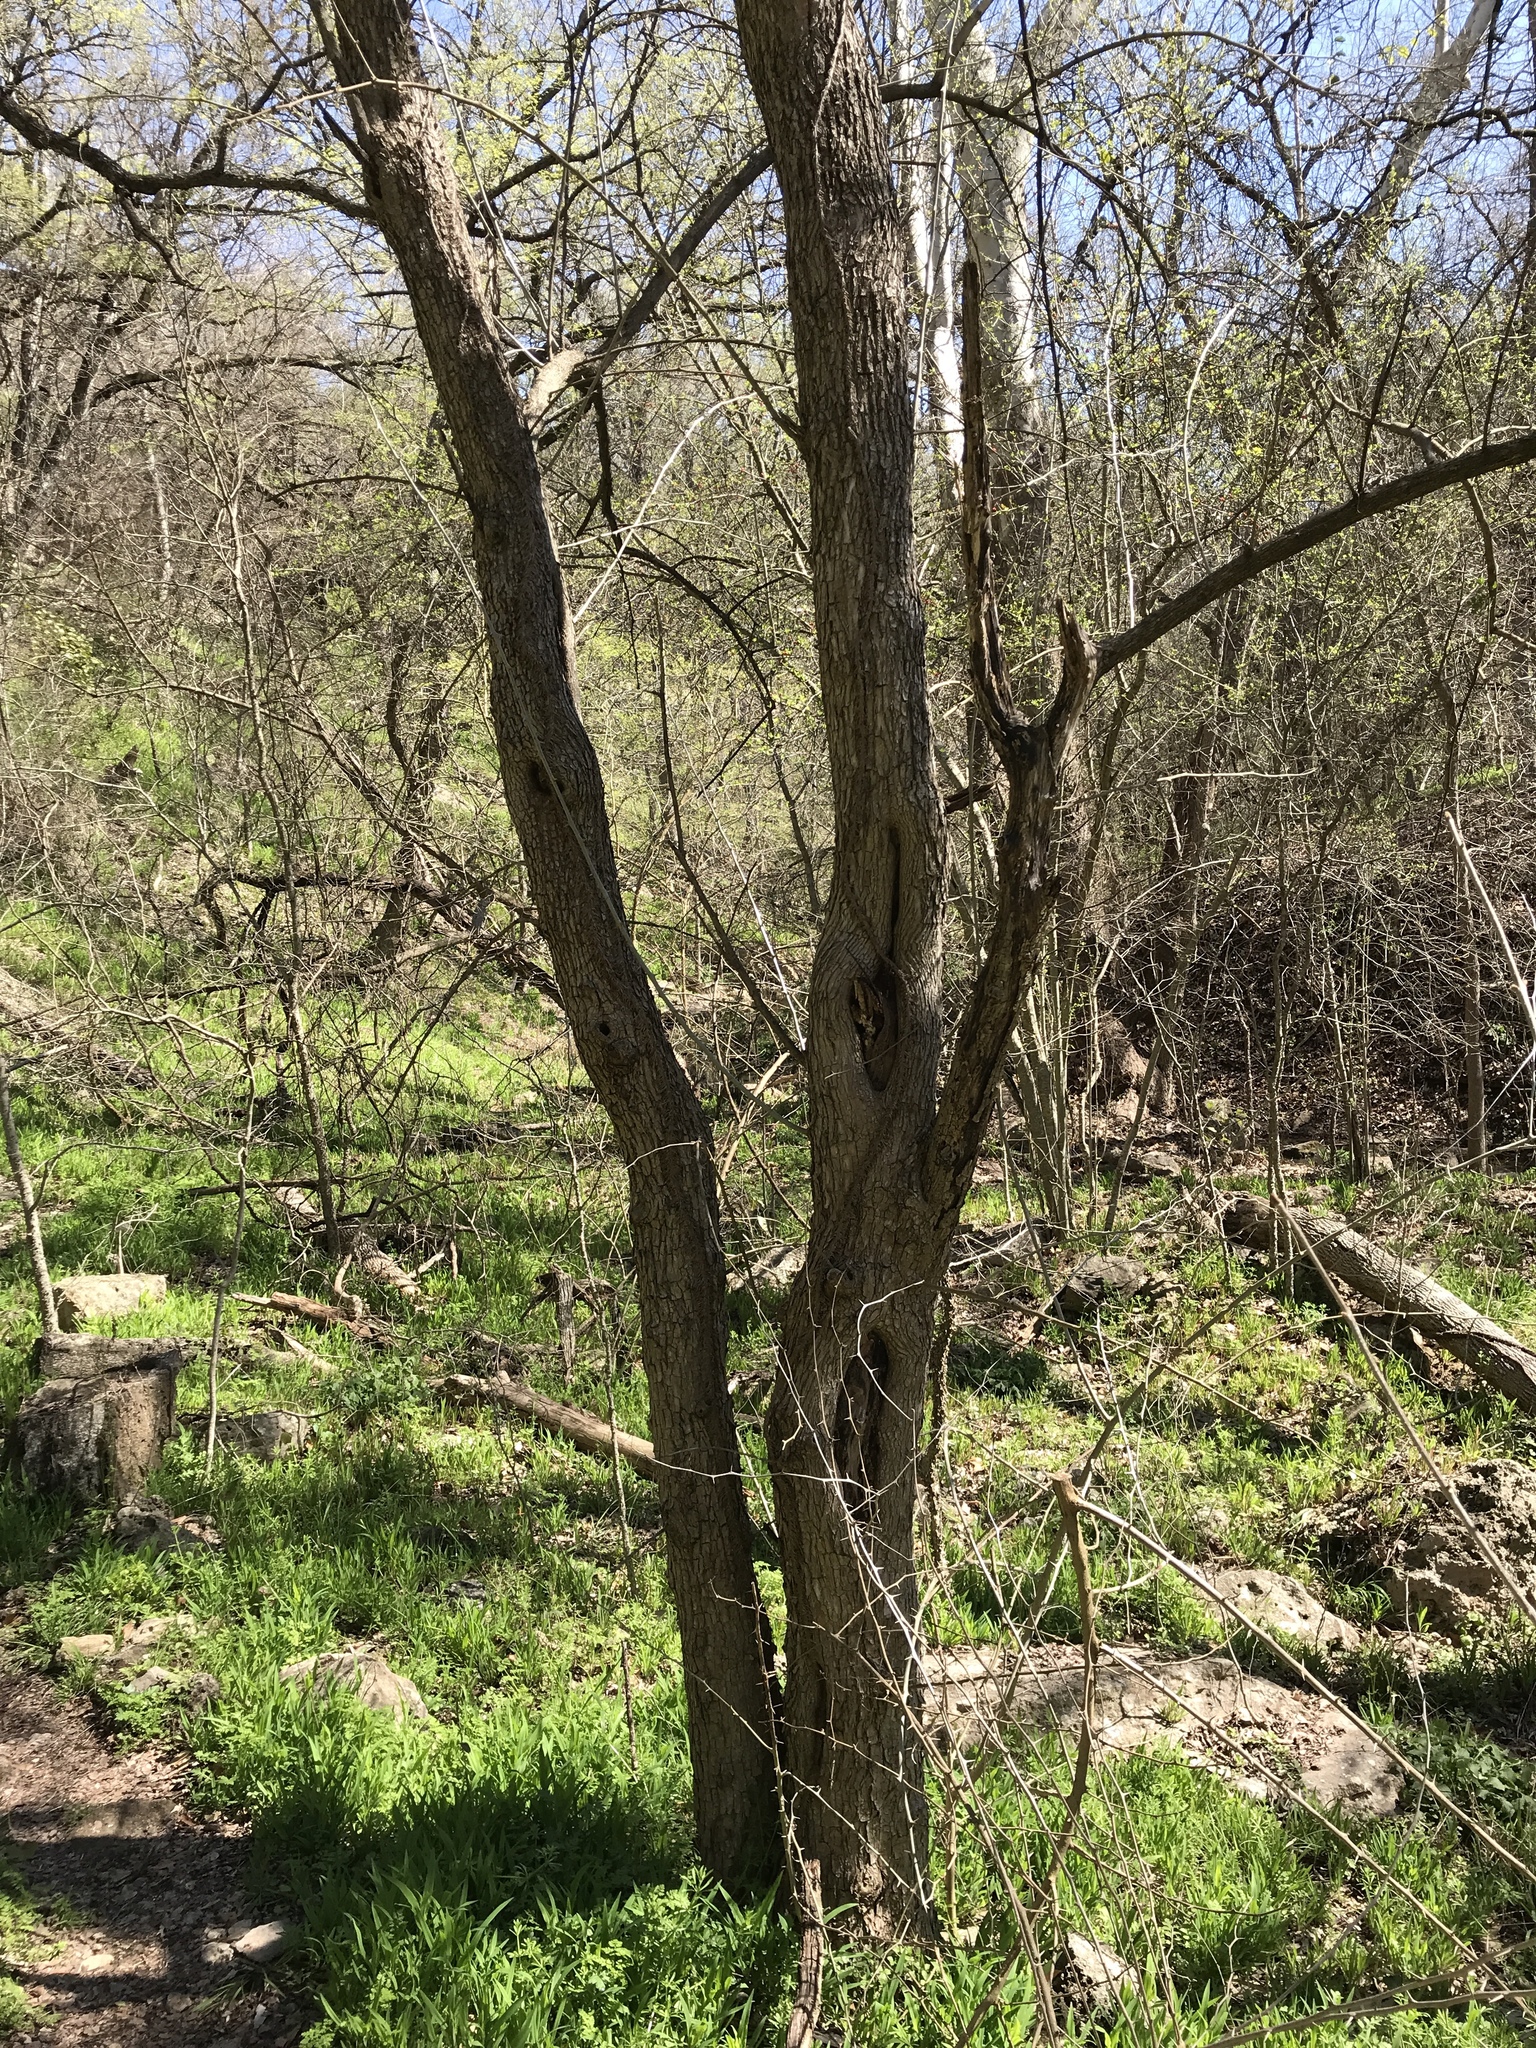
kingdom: Plantae
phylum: Tracheophyta
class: Magnoliopsida
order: Rosales
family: Moraceae
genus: Maclura
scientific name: Maclura pomifera
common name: Osage-orange
